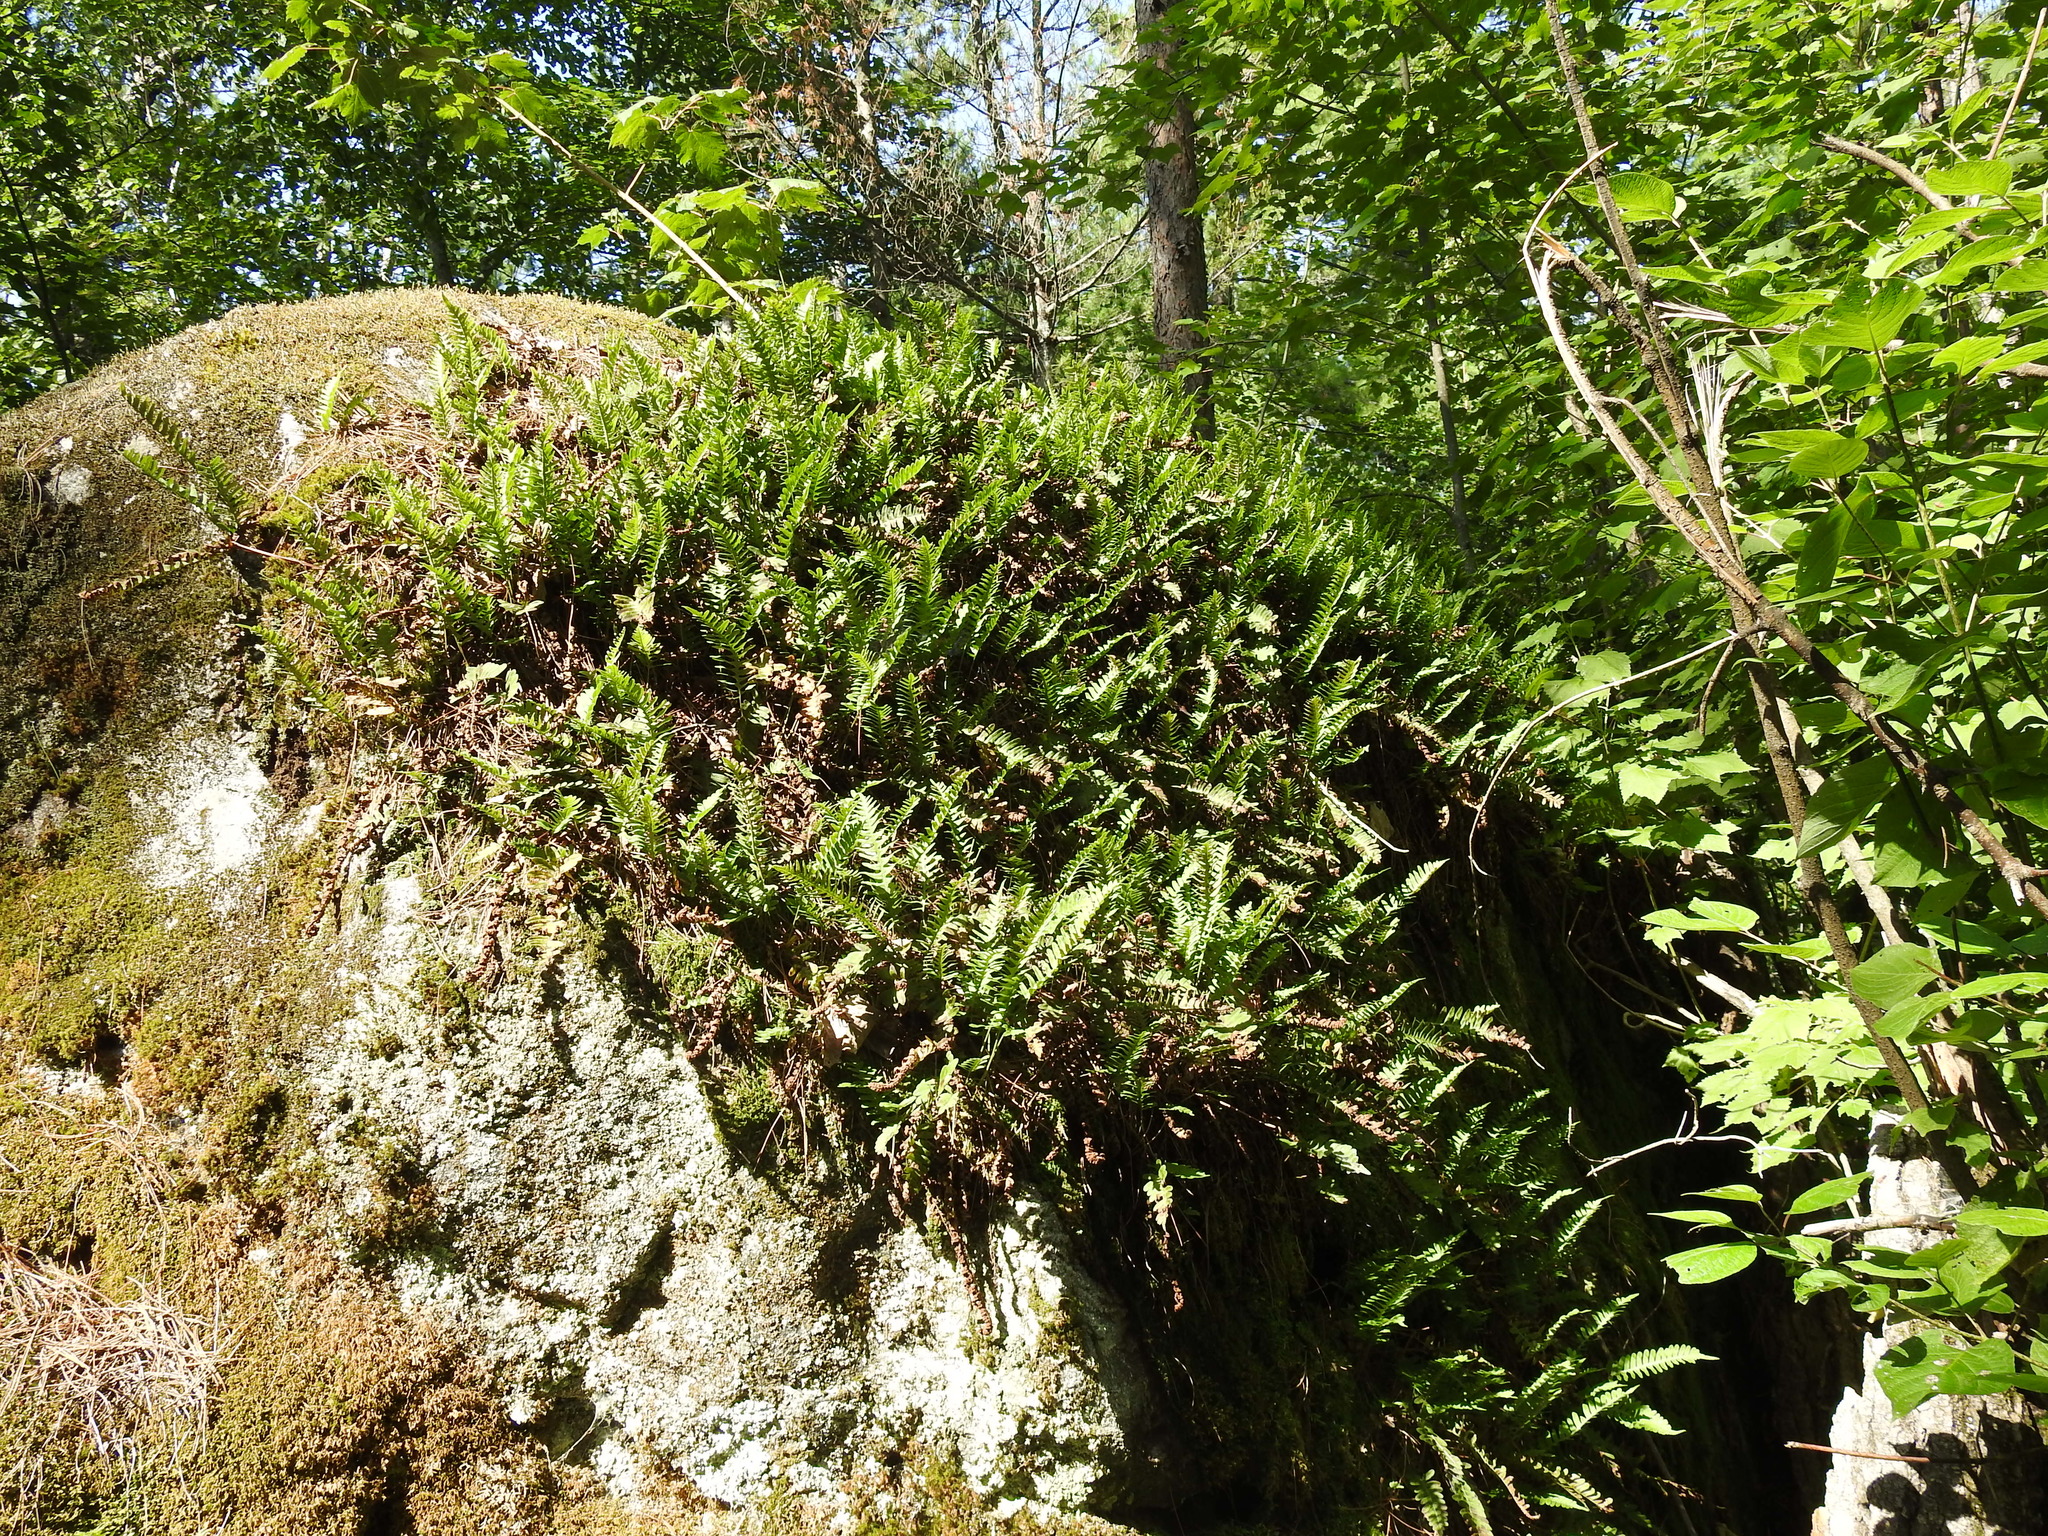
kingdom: Plantae
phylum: Tracheophyta
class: Polypodiopsida
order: Polypodiales
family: Polypodiaceae
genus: Polypodium
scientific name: Polypodium virginianum
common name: American wall fern
